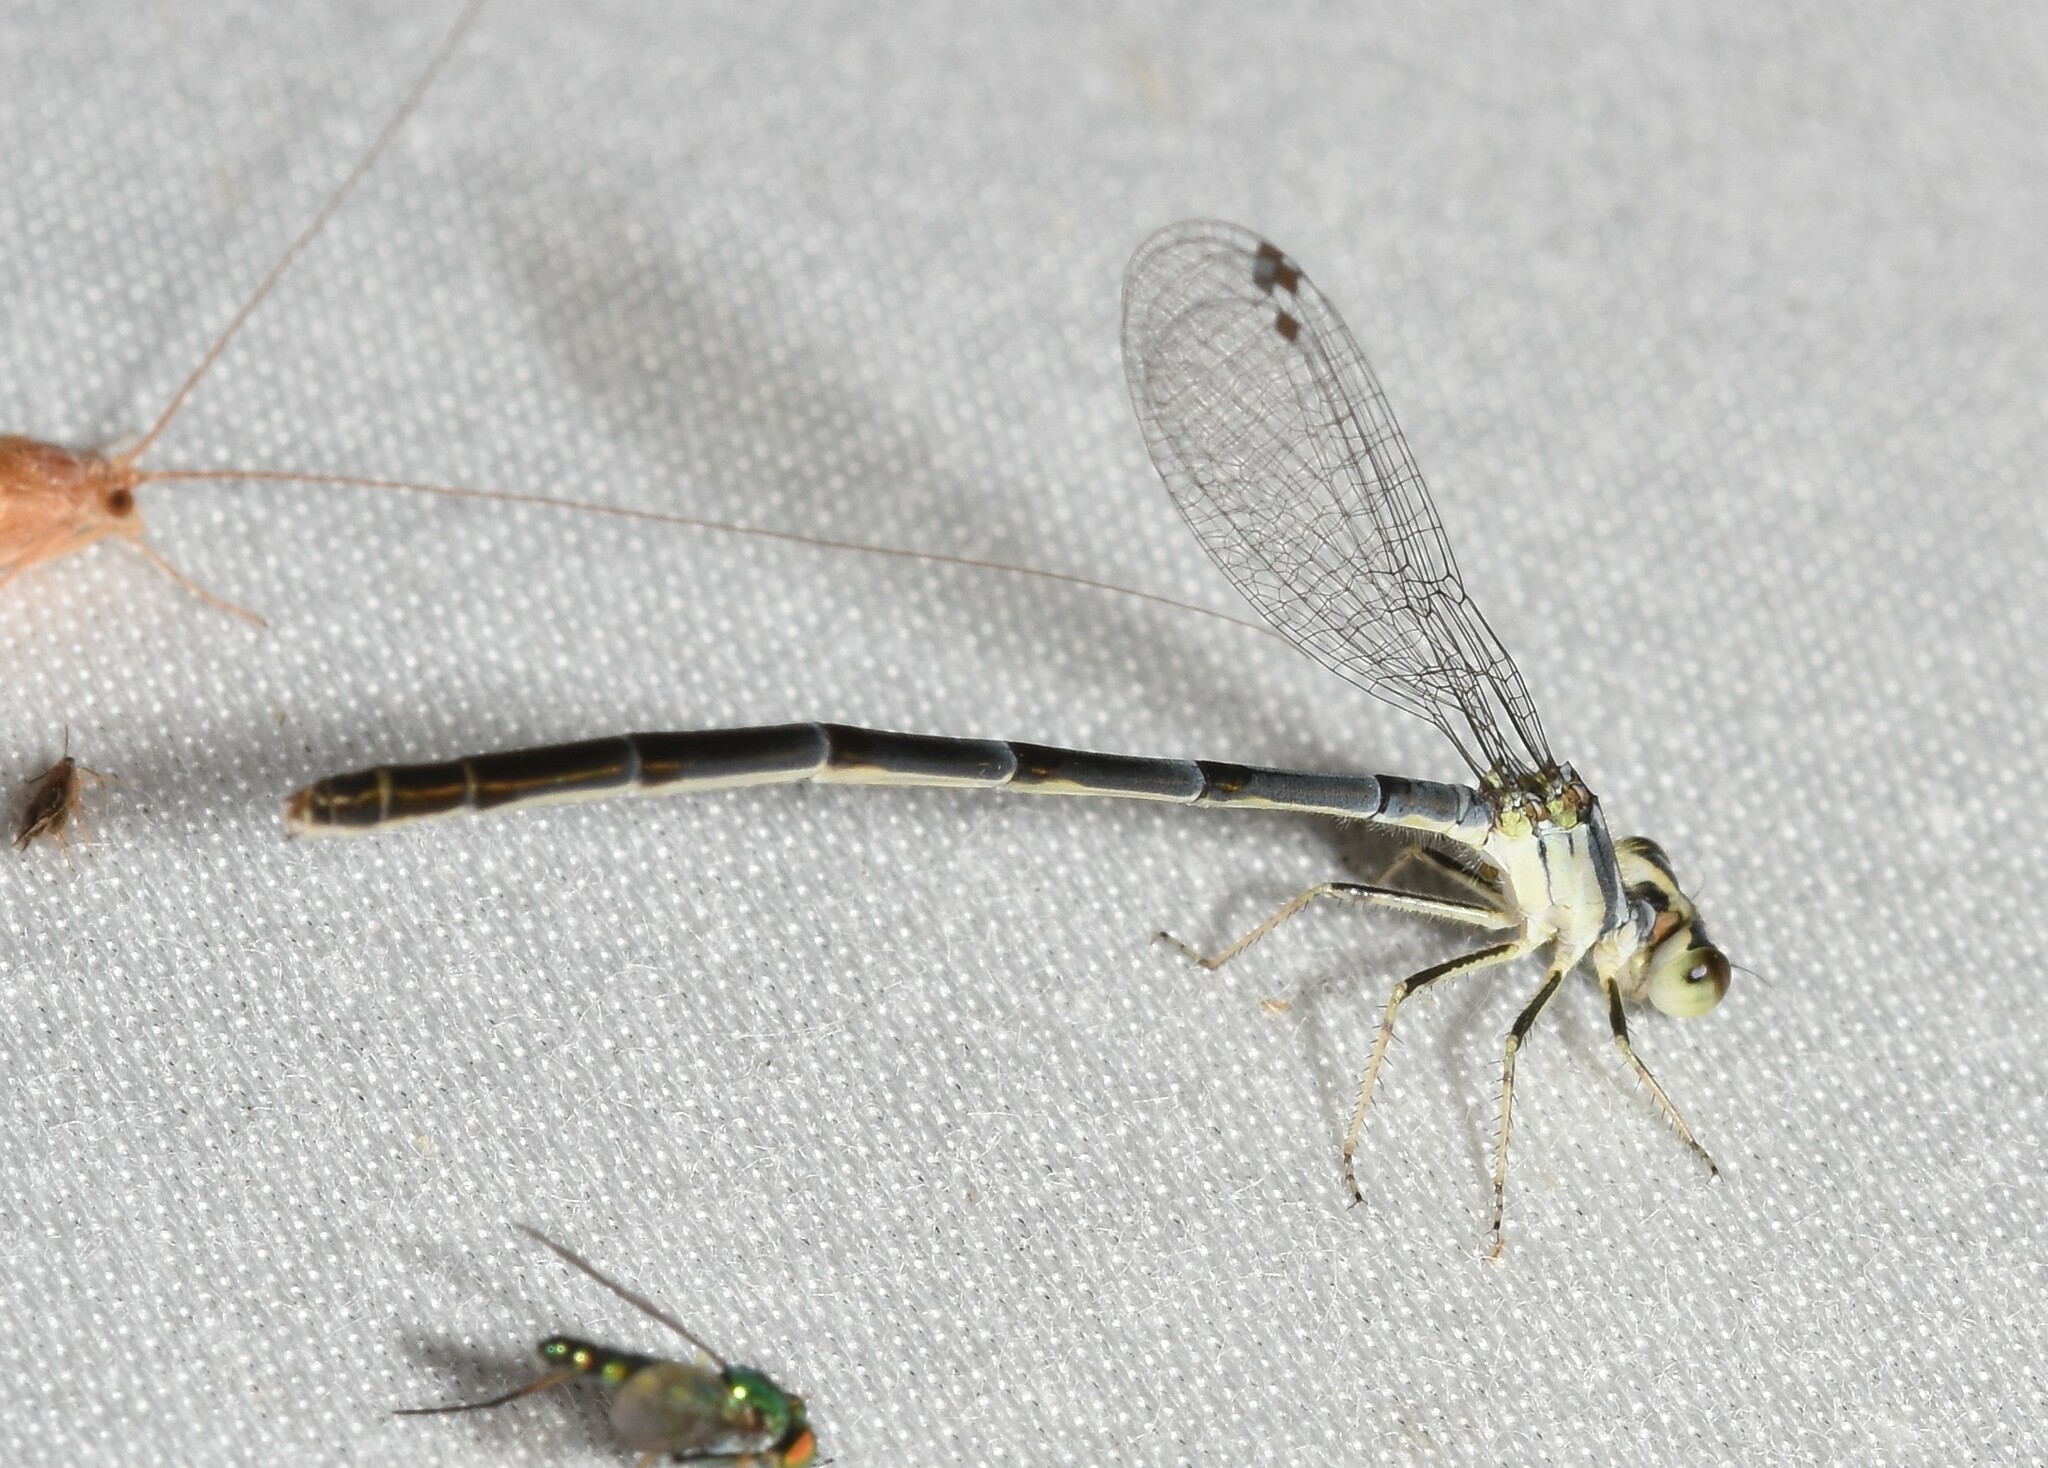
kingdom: Animalia
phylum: Arthropoda
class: Insecta
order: Odonata
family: Coenagrionidae
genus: Ischnura
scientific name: Ischnura posita
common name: Fragile forktail
